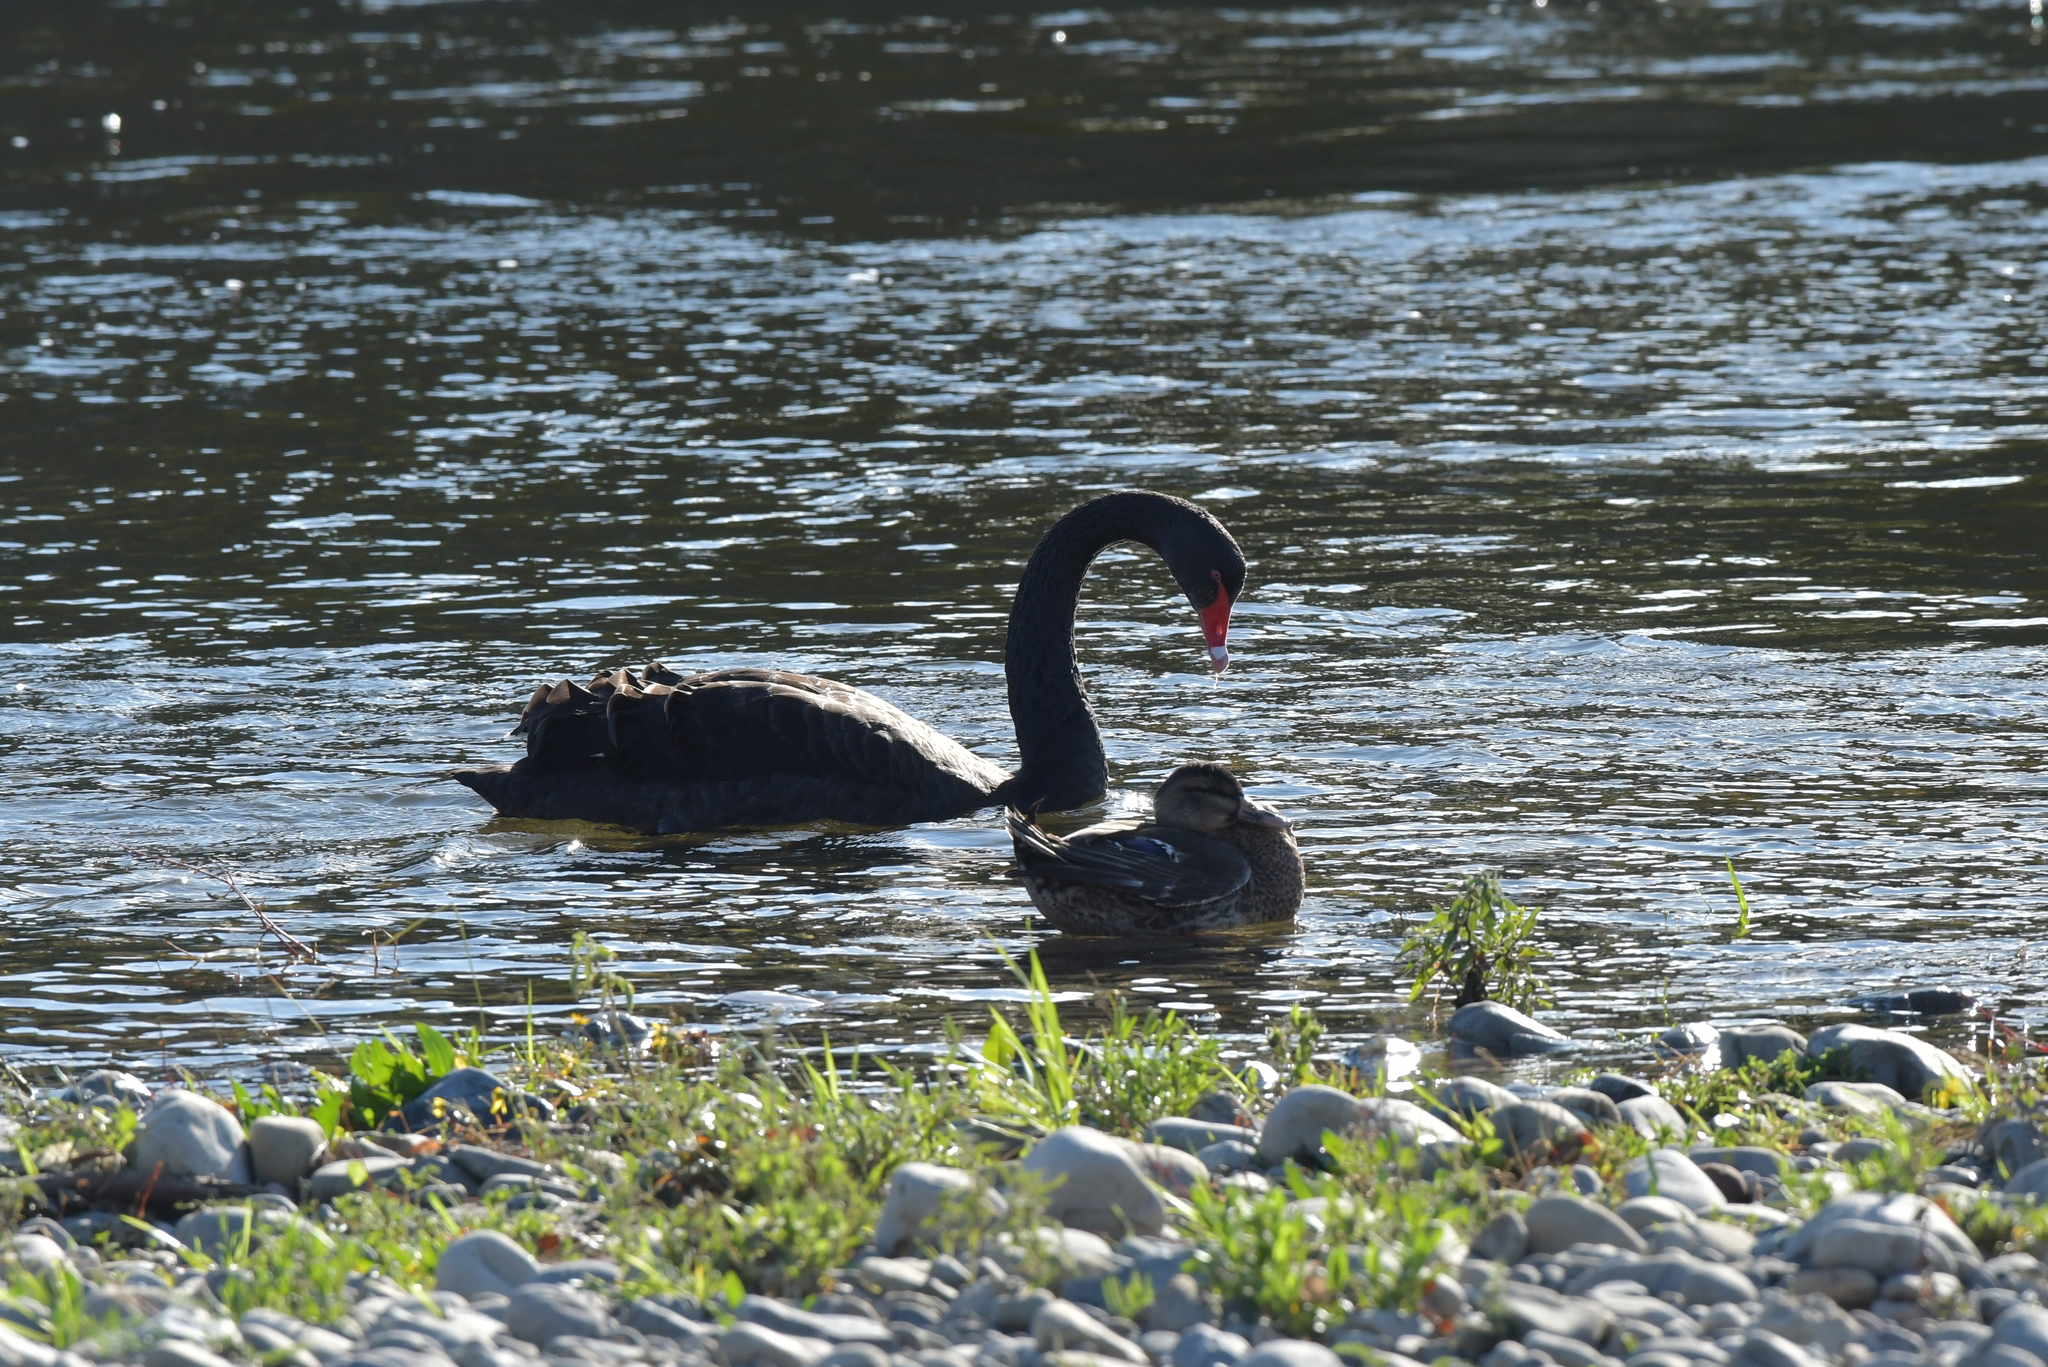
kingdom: Animalia
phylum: Chordata
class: Aves
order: Anseriformes
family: Anatidae
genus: Cygnus
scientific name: Cygnus atratus
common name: Black swan
